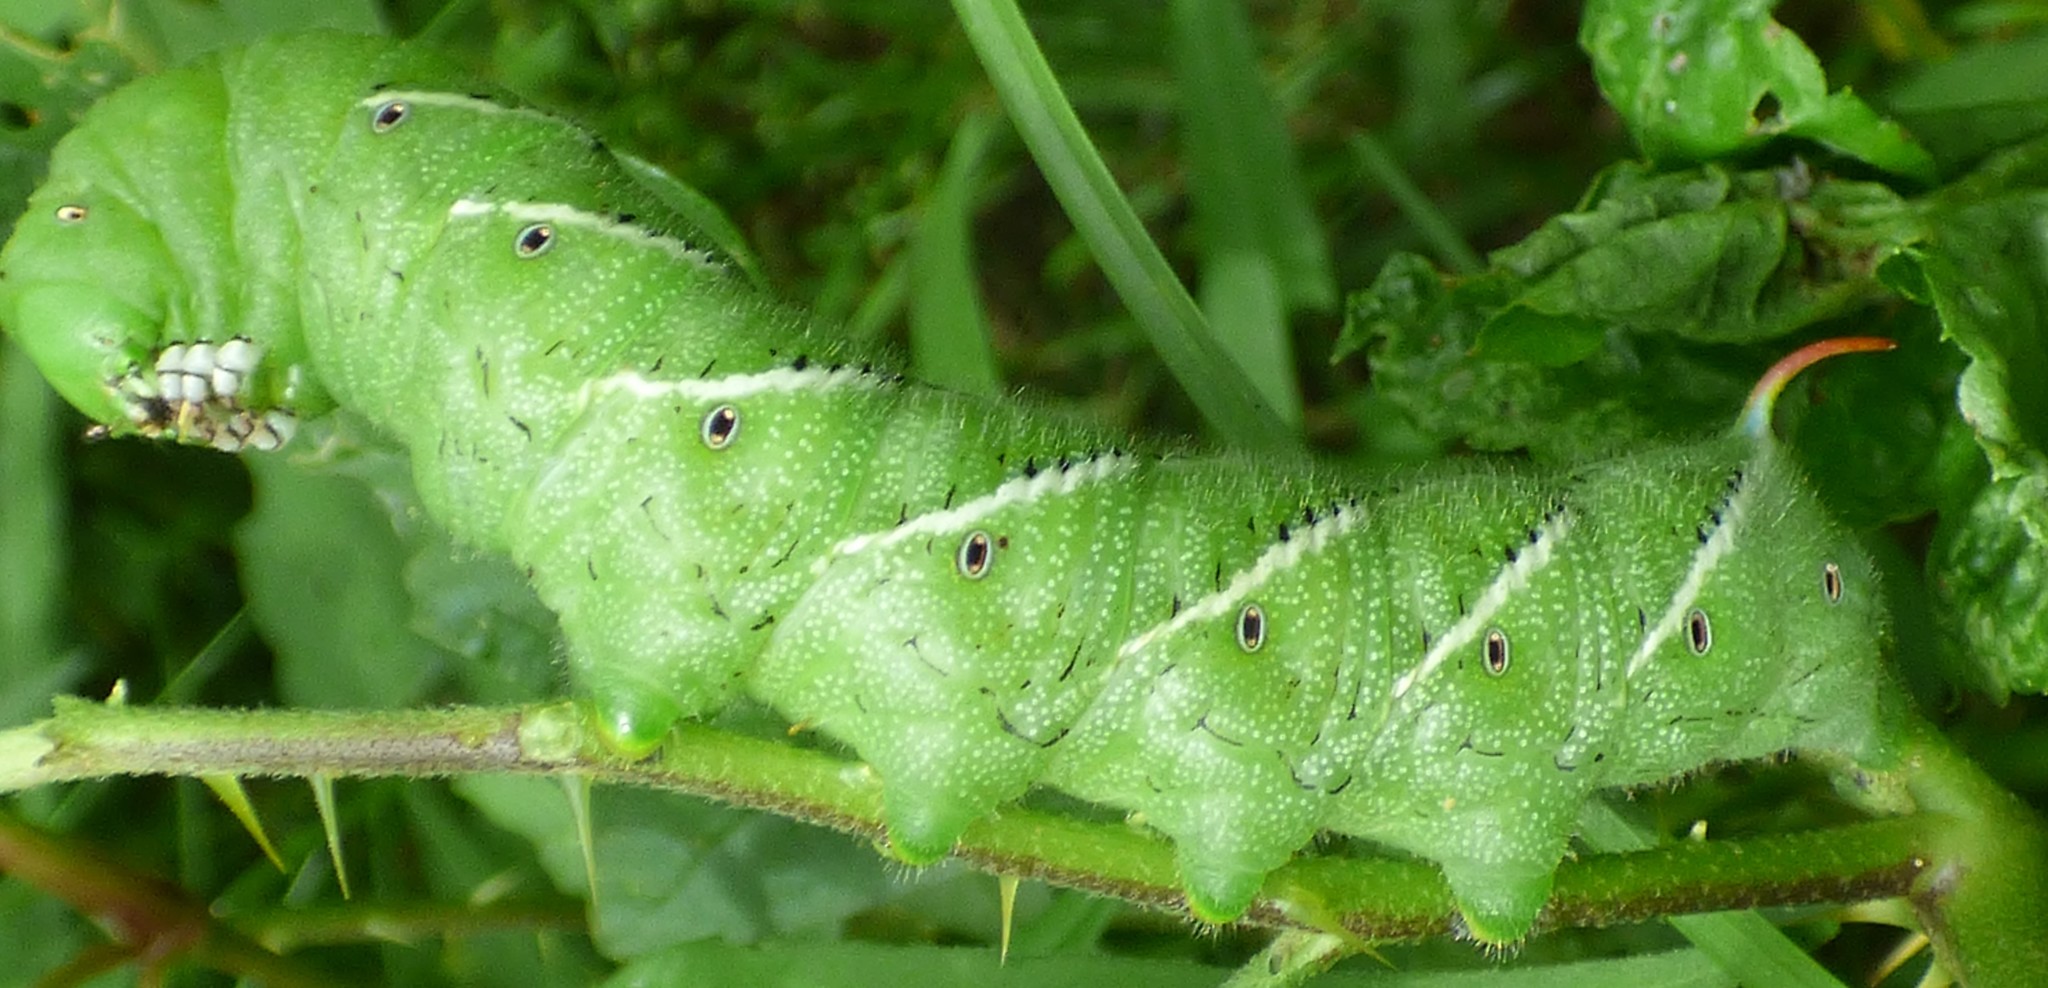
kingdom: Animalia
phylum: Arthropoda
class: Insecta
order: Lepidoptera
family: Sphingidae
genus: Manduca
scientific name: Manduca sexta
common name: Carolina sphinx
